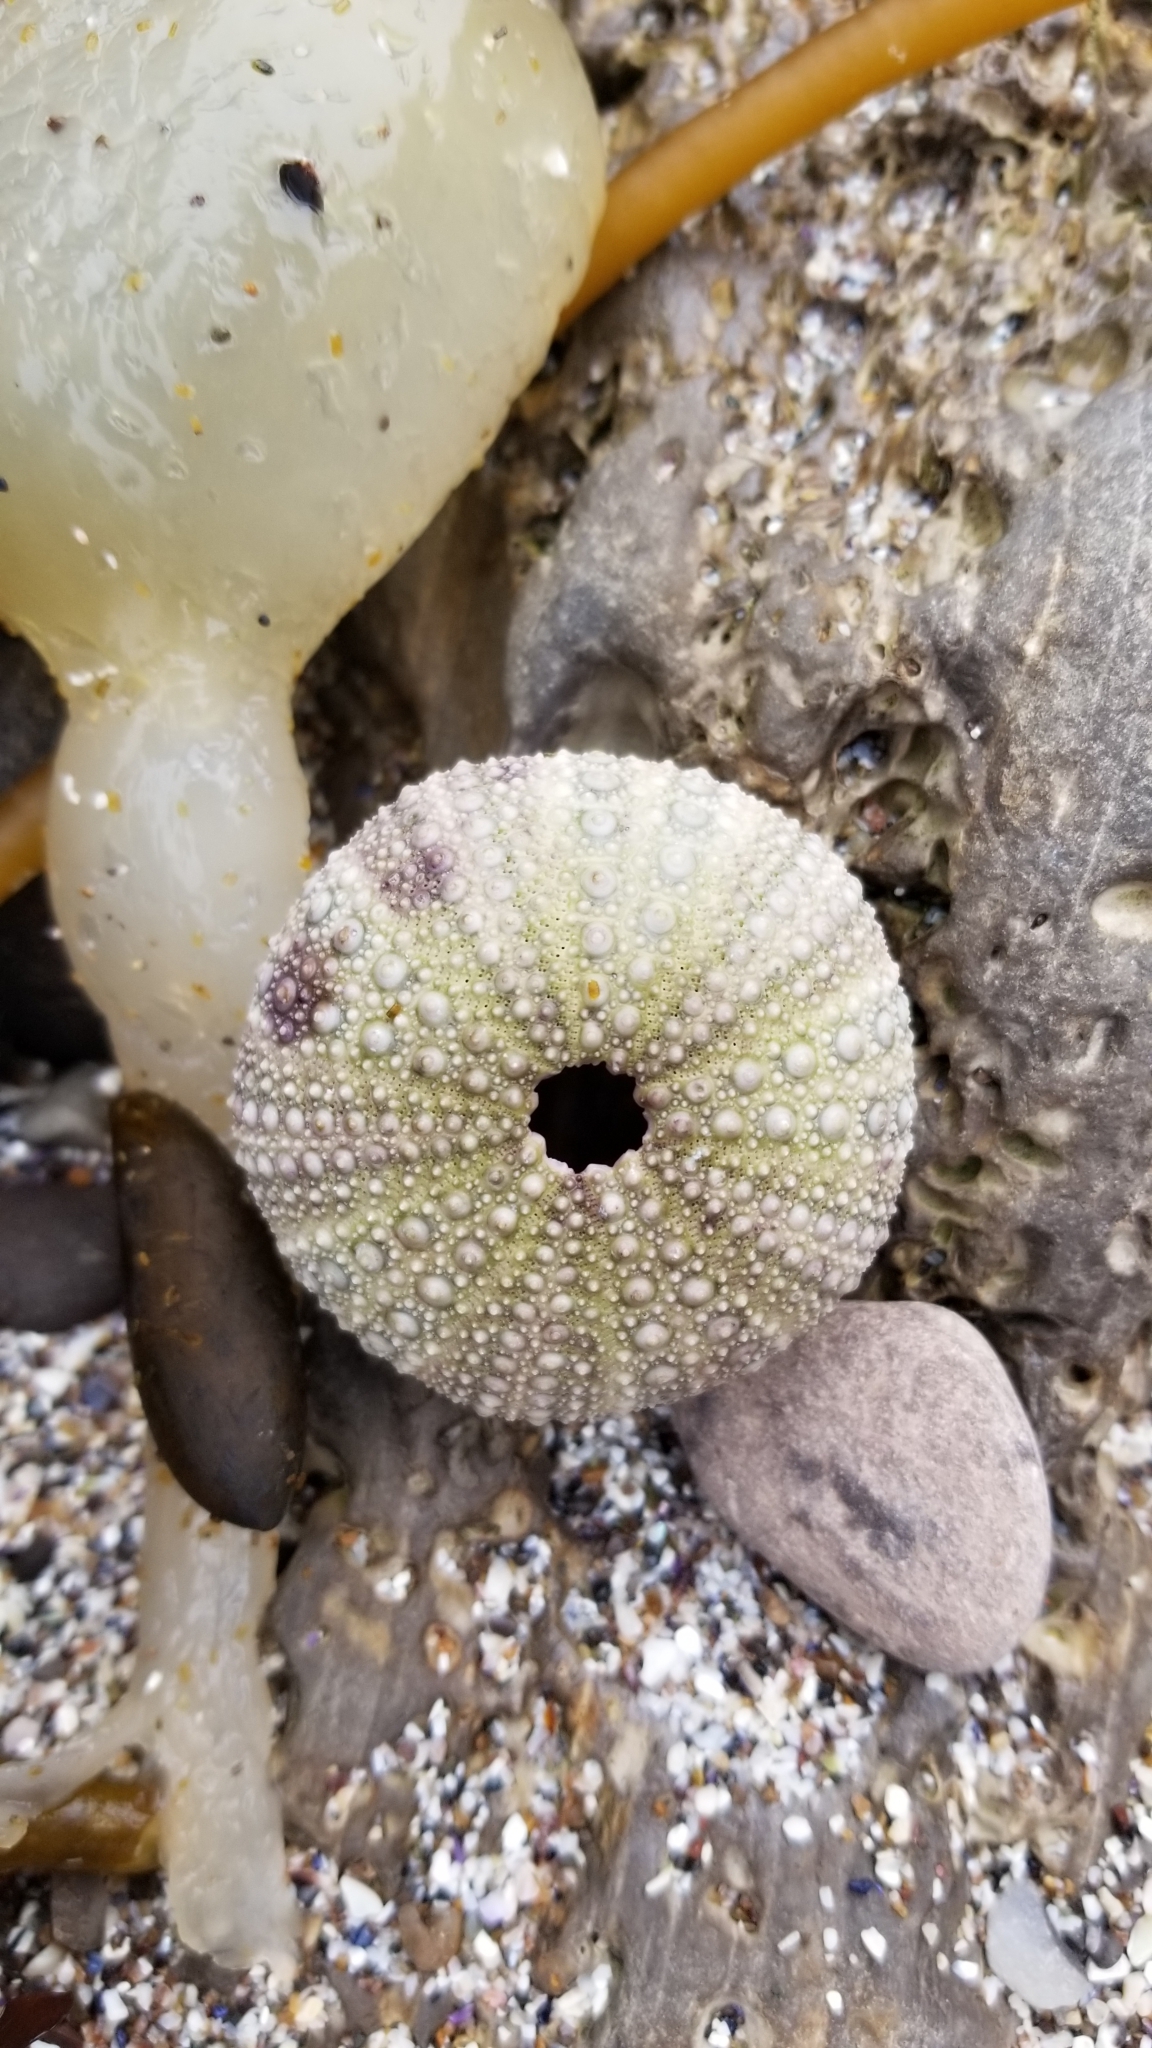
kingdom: Animalia
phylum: Echinodermata
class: Echinoidea
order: Camarodonta
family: Strongylocentrotidae
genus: Strongylocentrotus
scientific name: Strongylocentrotus purpuratus
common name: Purple sea urchin
